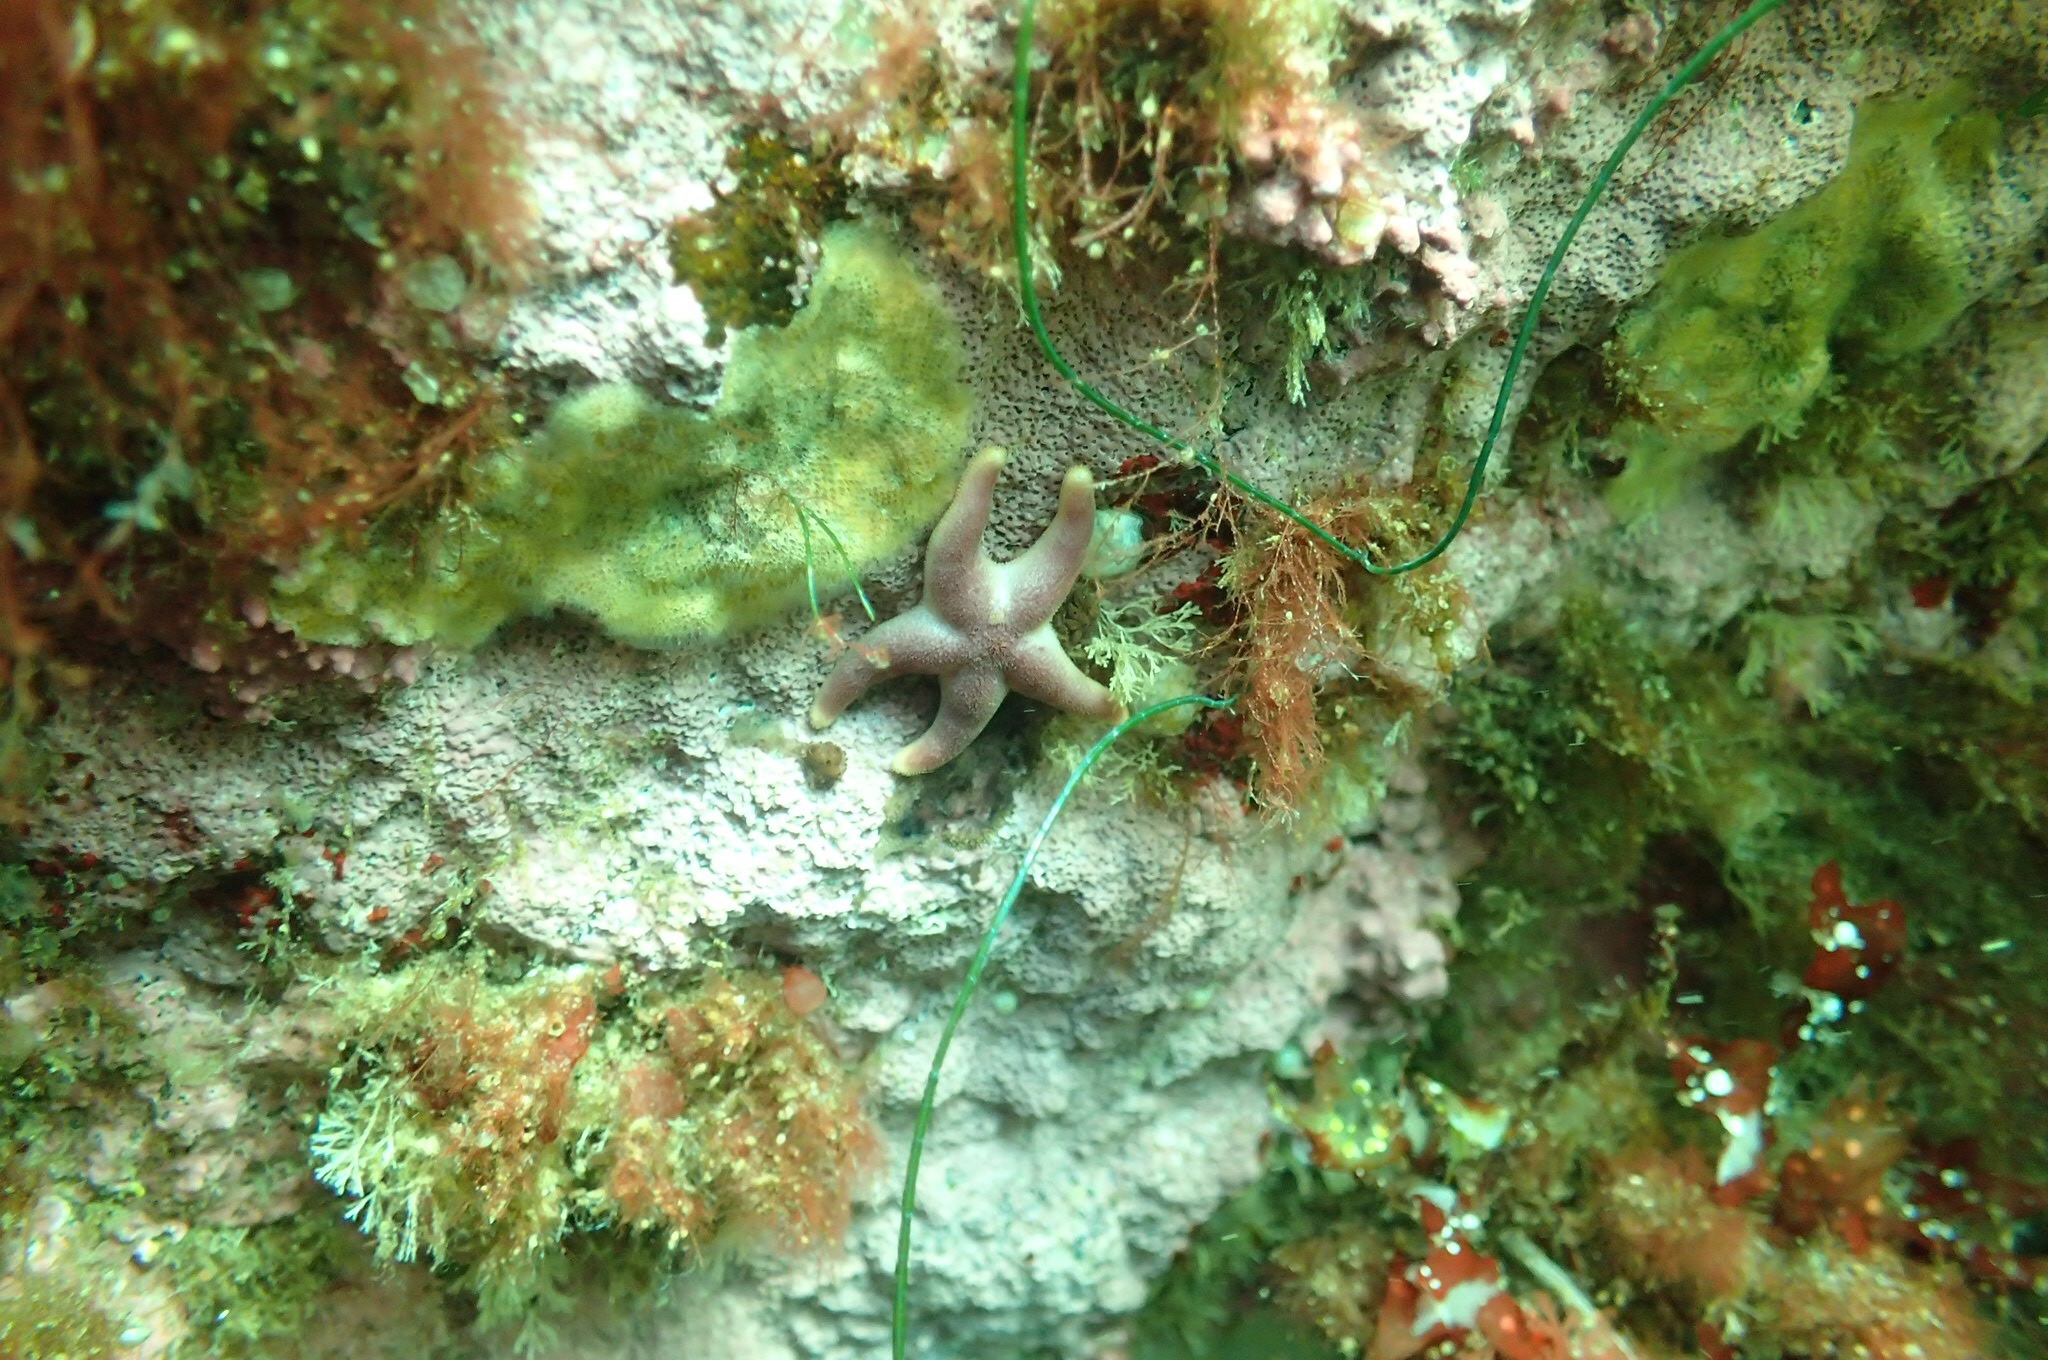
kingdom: Animalia
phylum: Echinodermata
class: Asteroidea
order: Spinulosida
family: Echinasteridae
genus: Henricia
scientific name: Henricia sanguinolenta
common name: Blood star
